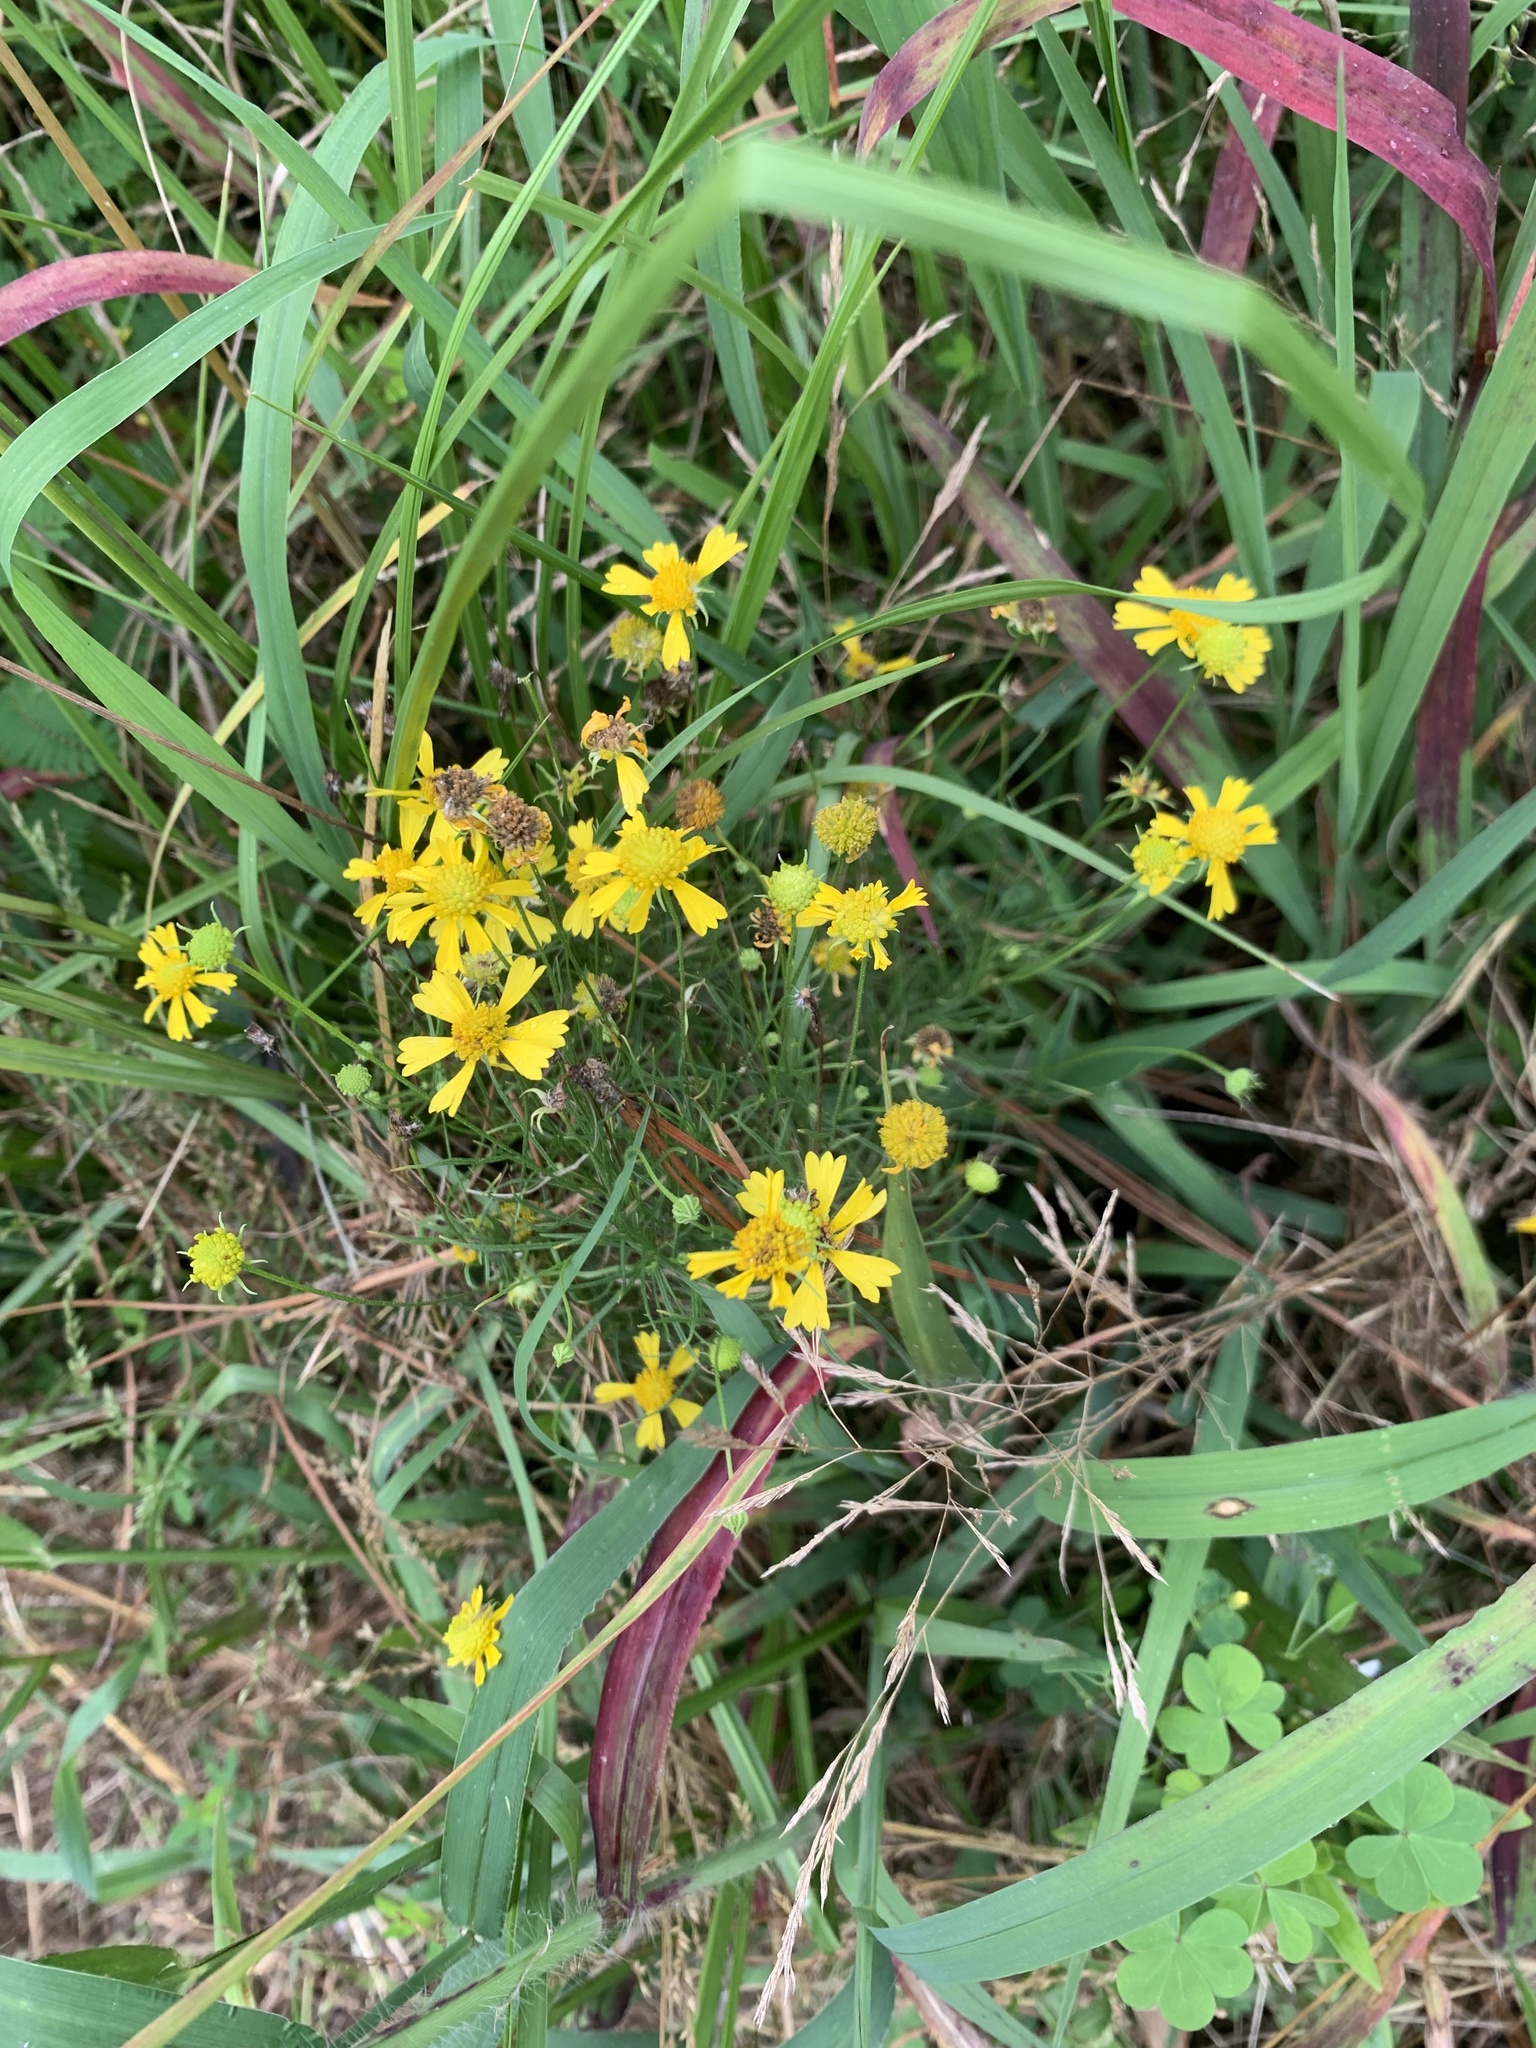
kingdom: Plantae
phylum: Tracheophyta
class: Magnoliopsida
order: Asterales
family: Asteraceae
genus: Helenium
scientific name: Helenium amarum
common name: Bitter sneezeweed
